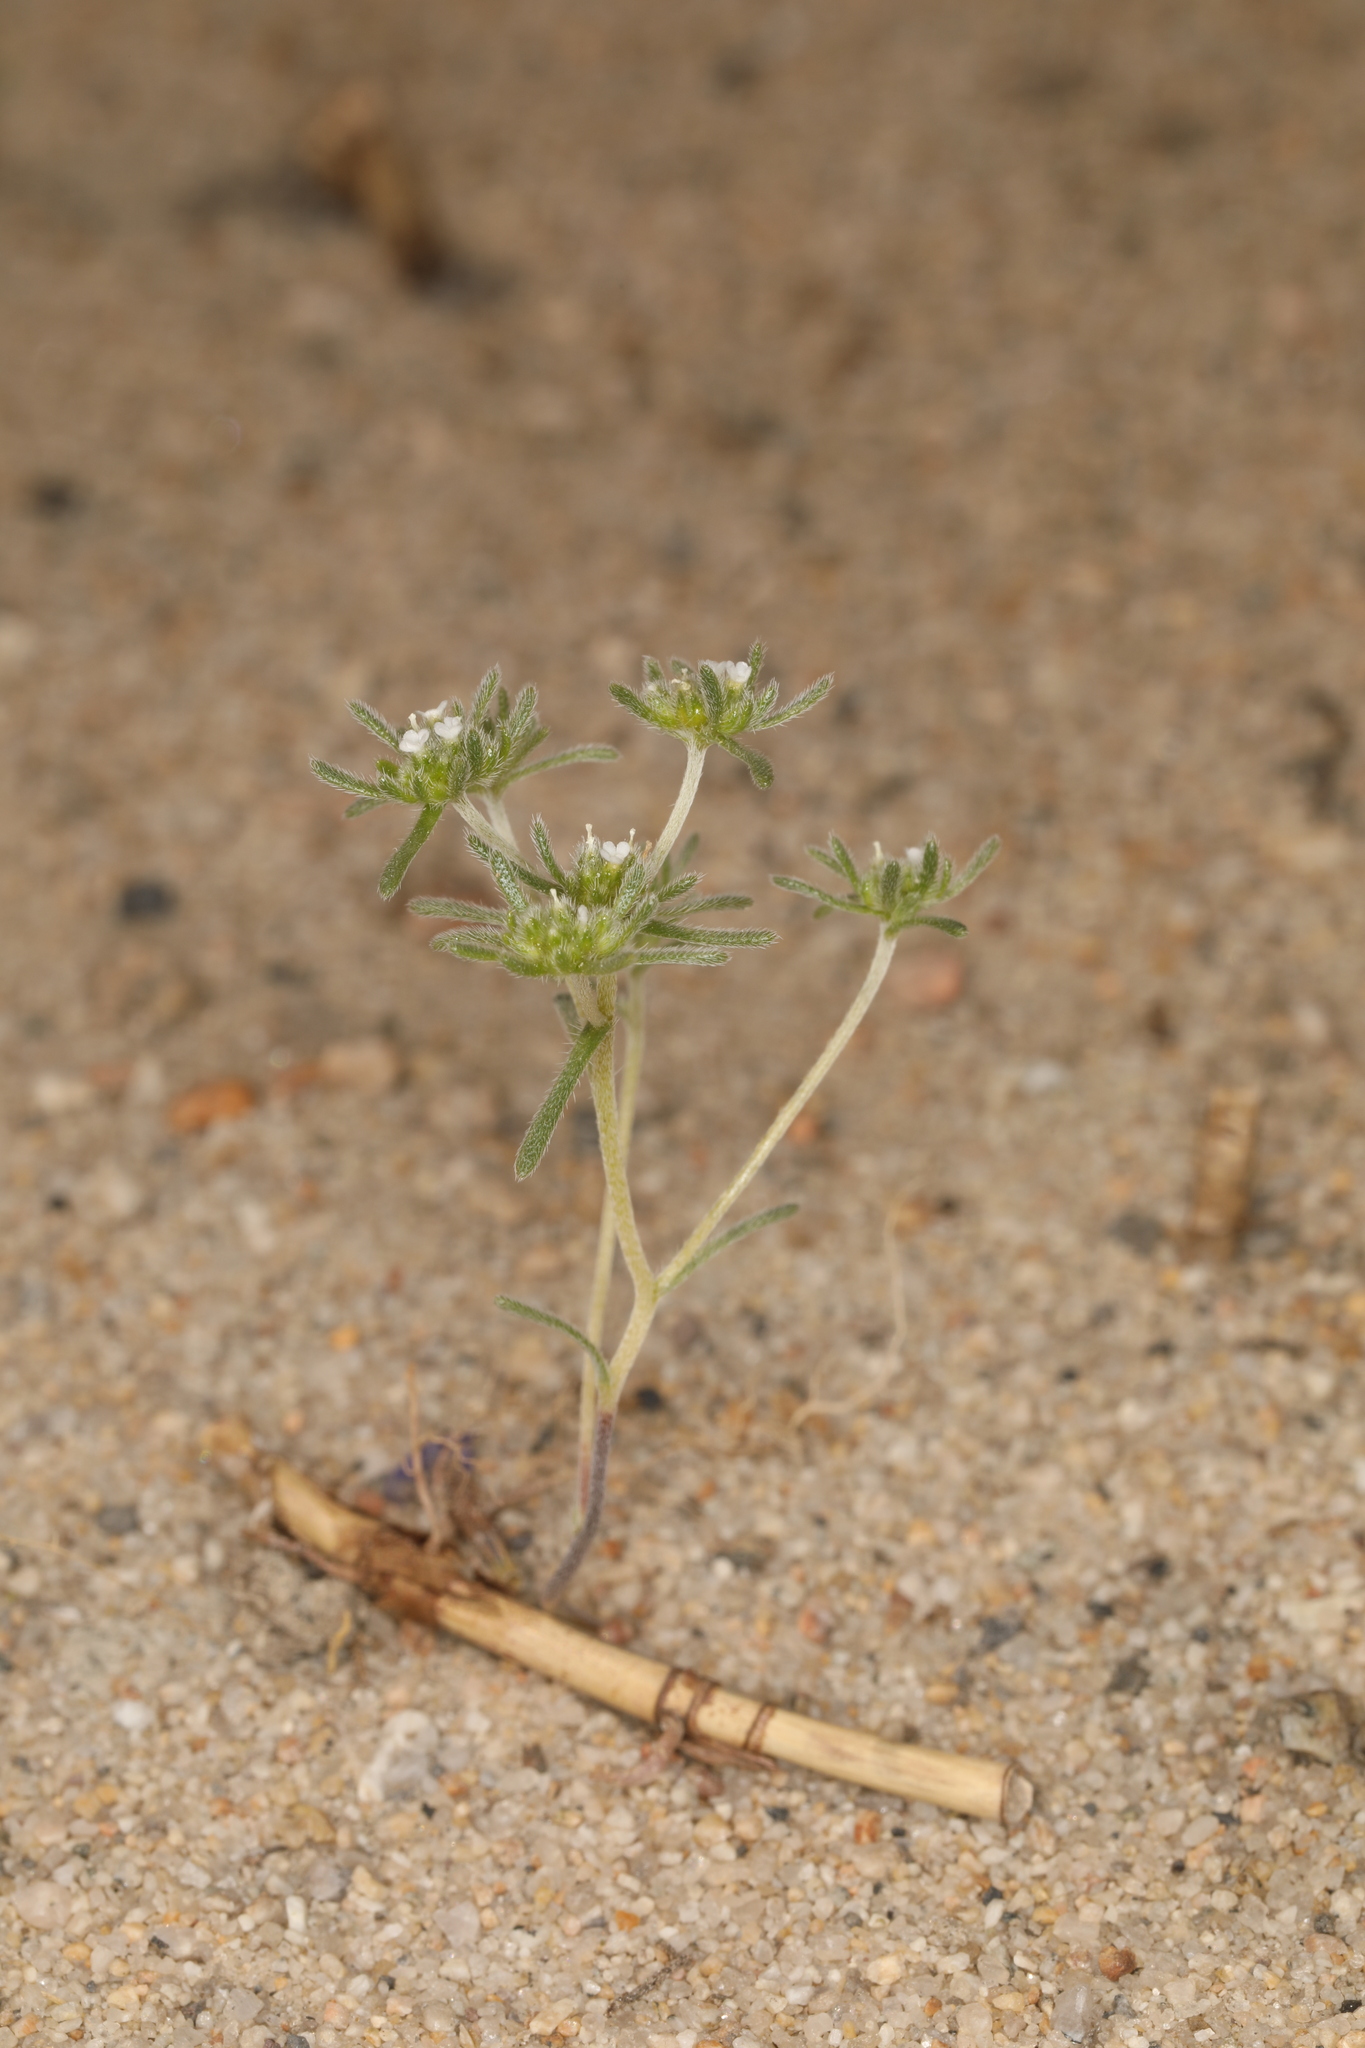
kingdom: Plantae
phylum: Tracheophyta
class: Magnoliopsida
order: Boraginales
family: Boraginaceae
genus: Eremocarya
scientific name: Eremocarya micrantha
